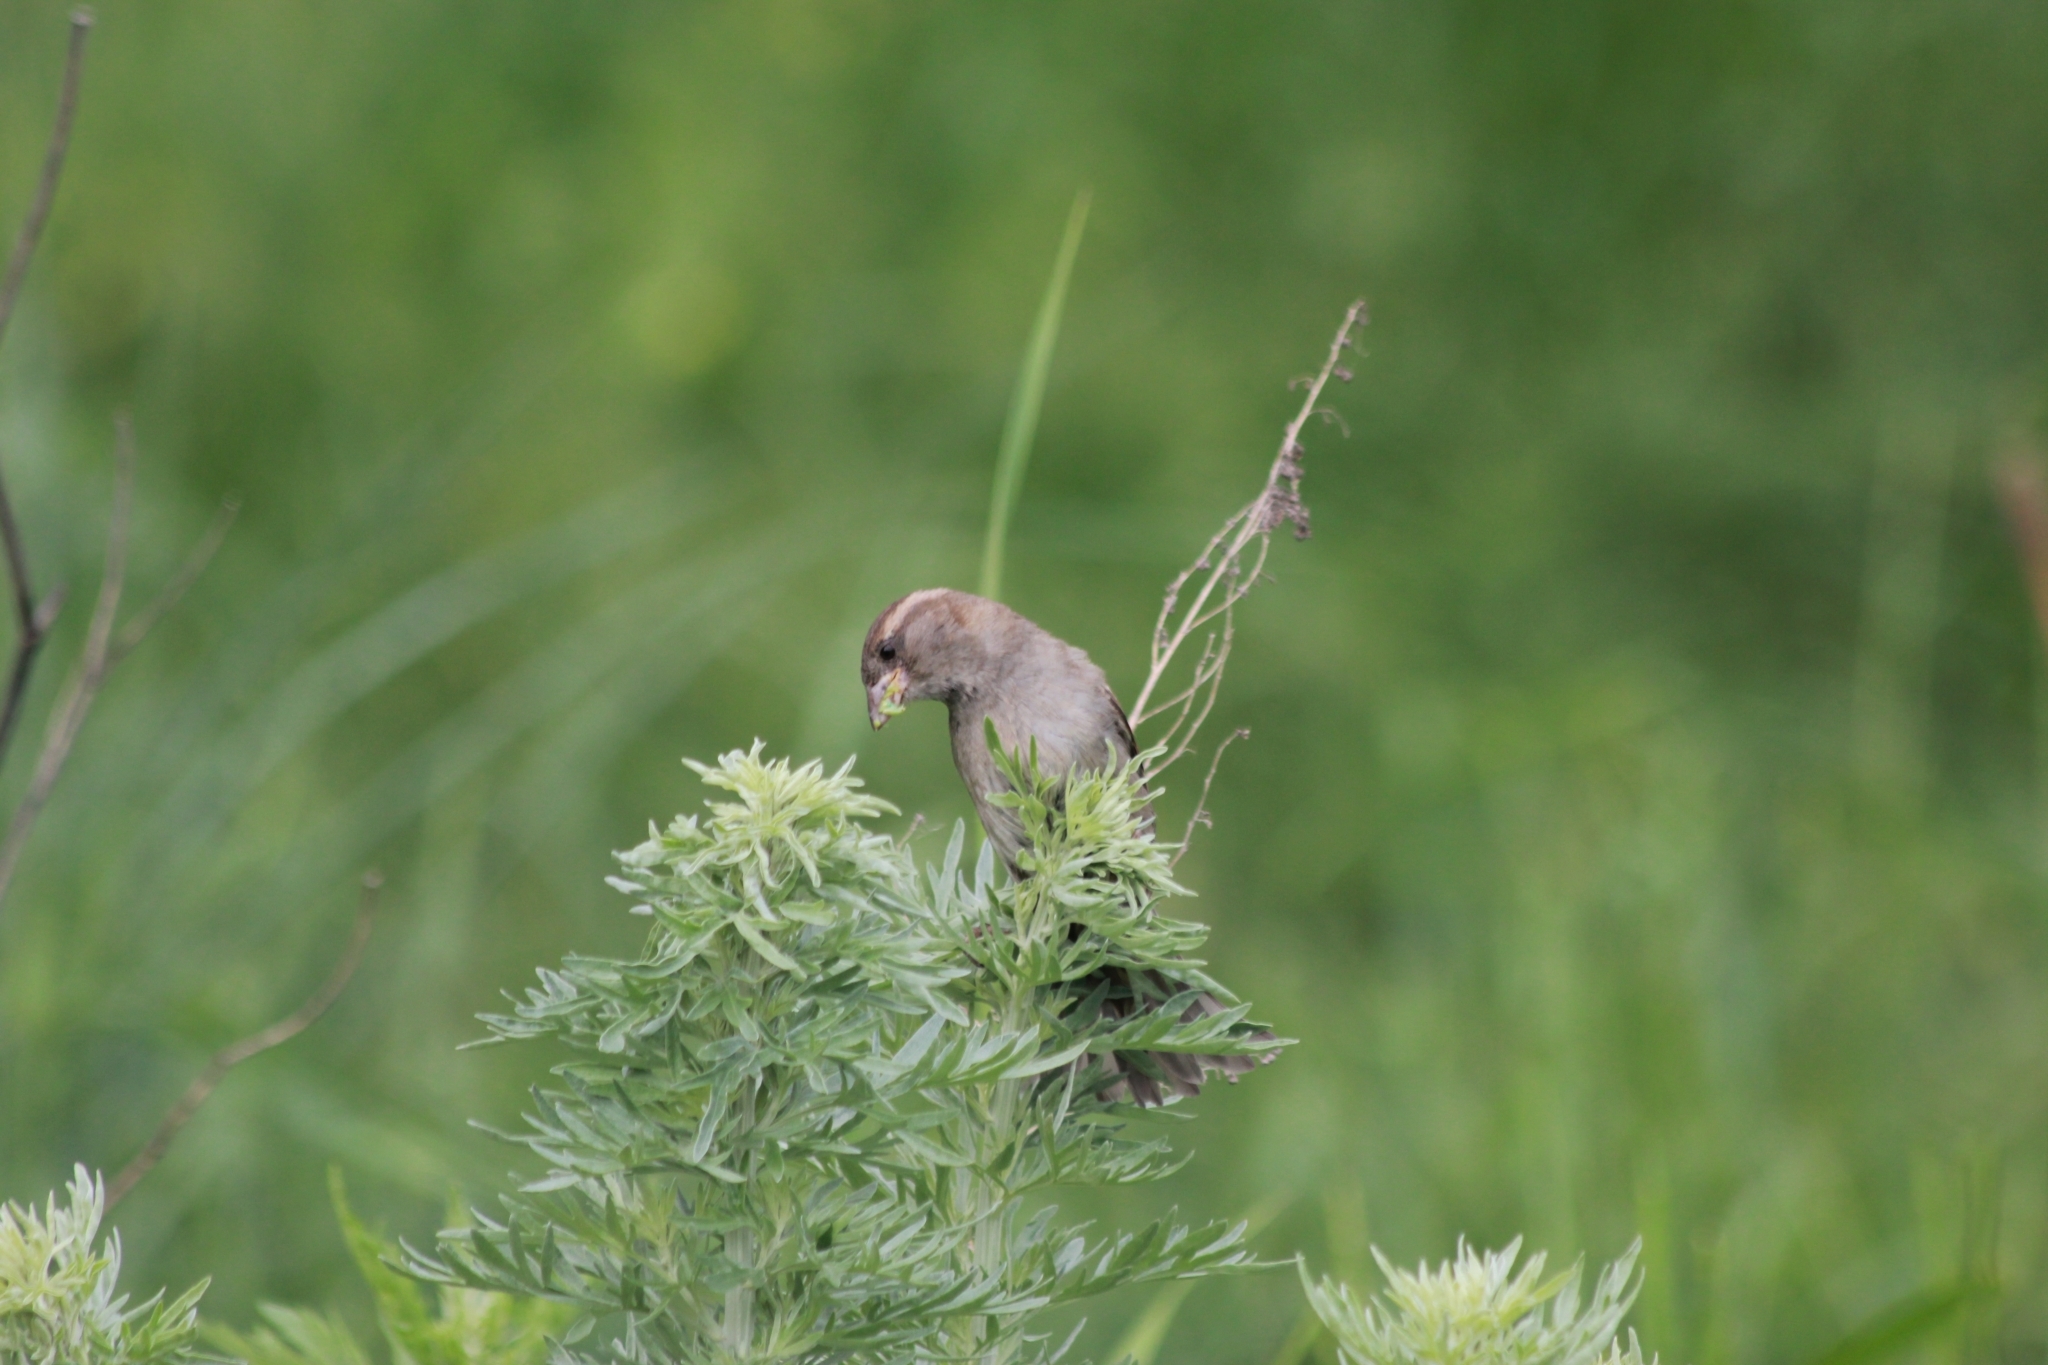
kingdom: Animalia
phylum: Chordata
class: Aves
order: Passeriformes
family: Passeridae
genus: Passer
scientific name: Passer domesticus
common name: House sparrow
